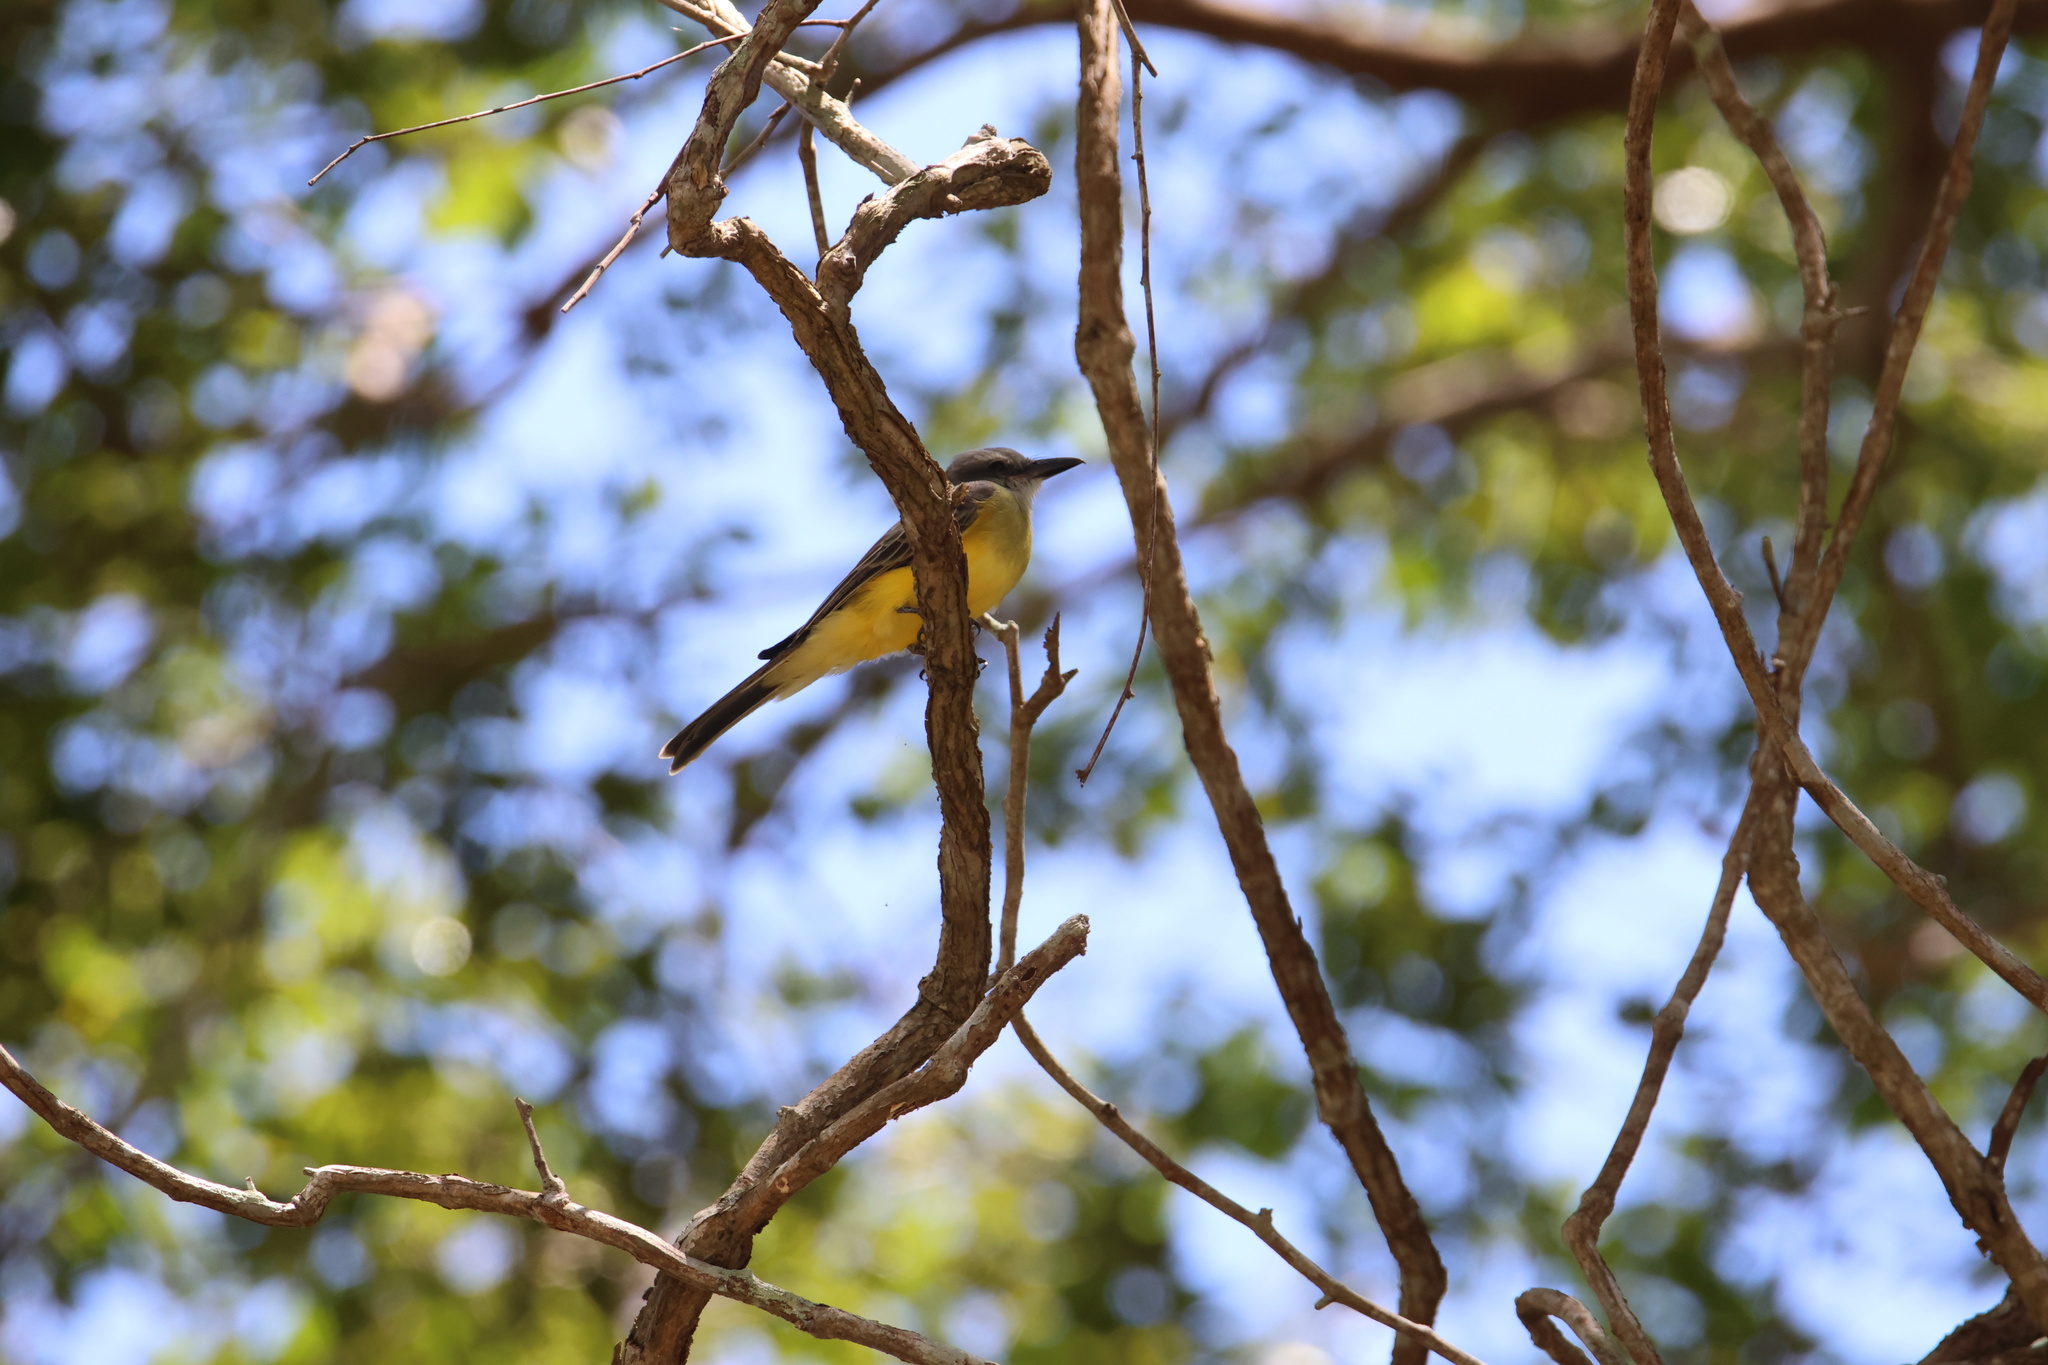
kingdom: Animalia
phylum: Chordata
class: Aves
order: Passeriformes
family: Tyrannidae
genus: Tyrannus
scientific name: Tyrannus melancholicus
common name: Tropical kingbird
